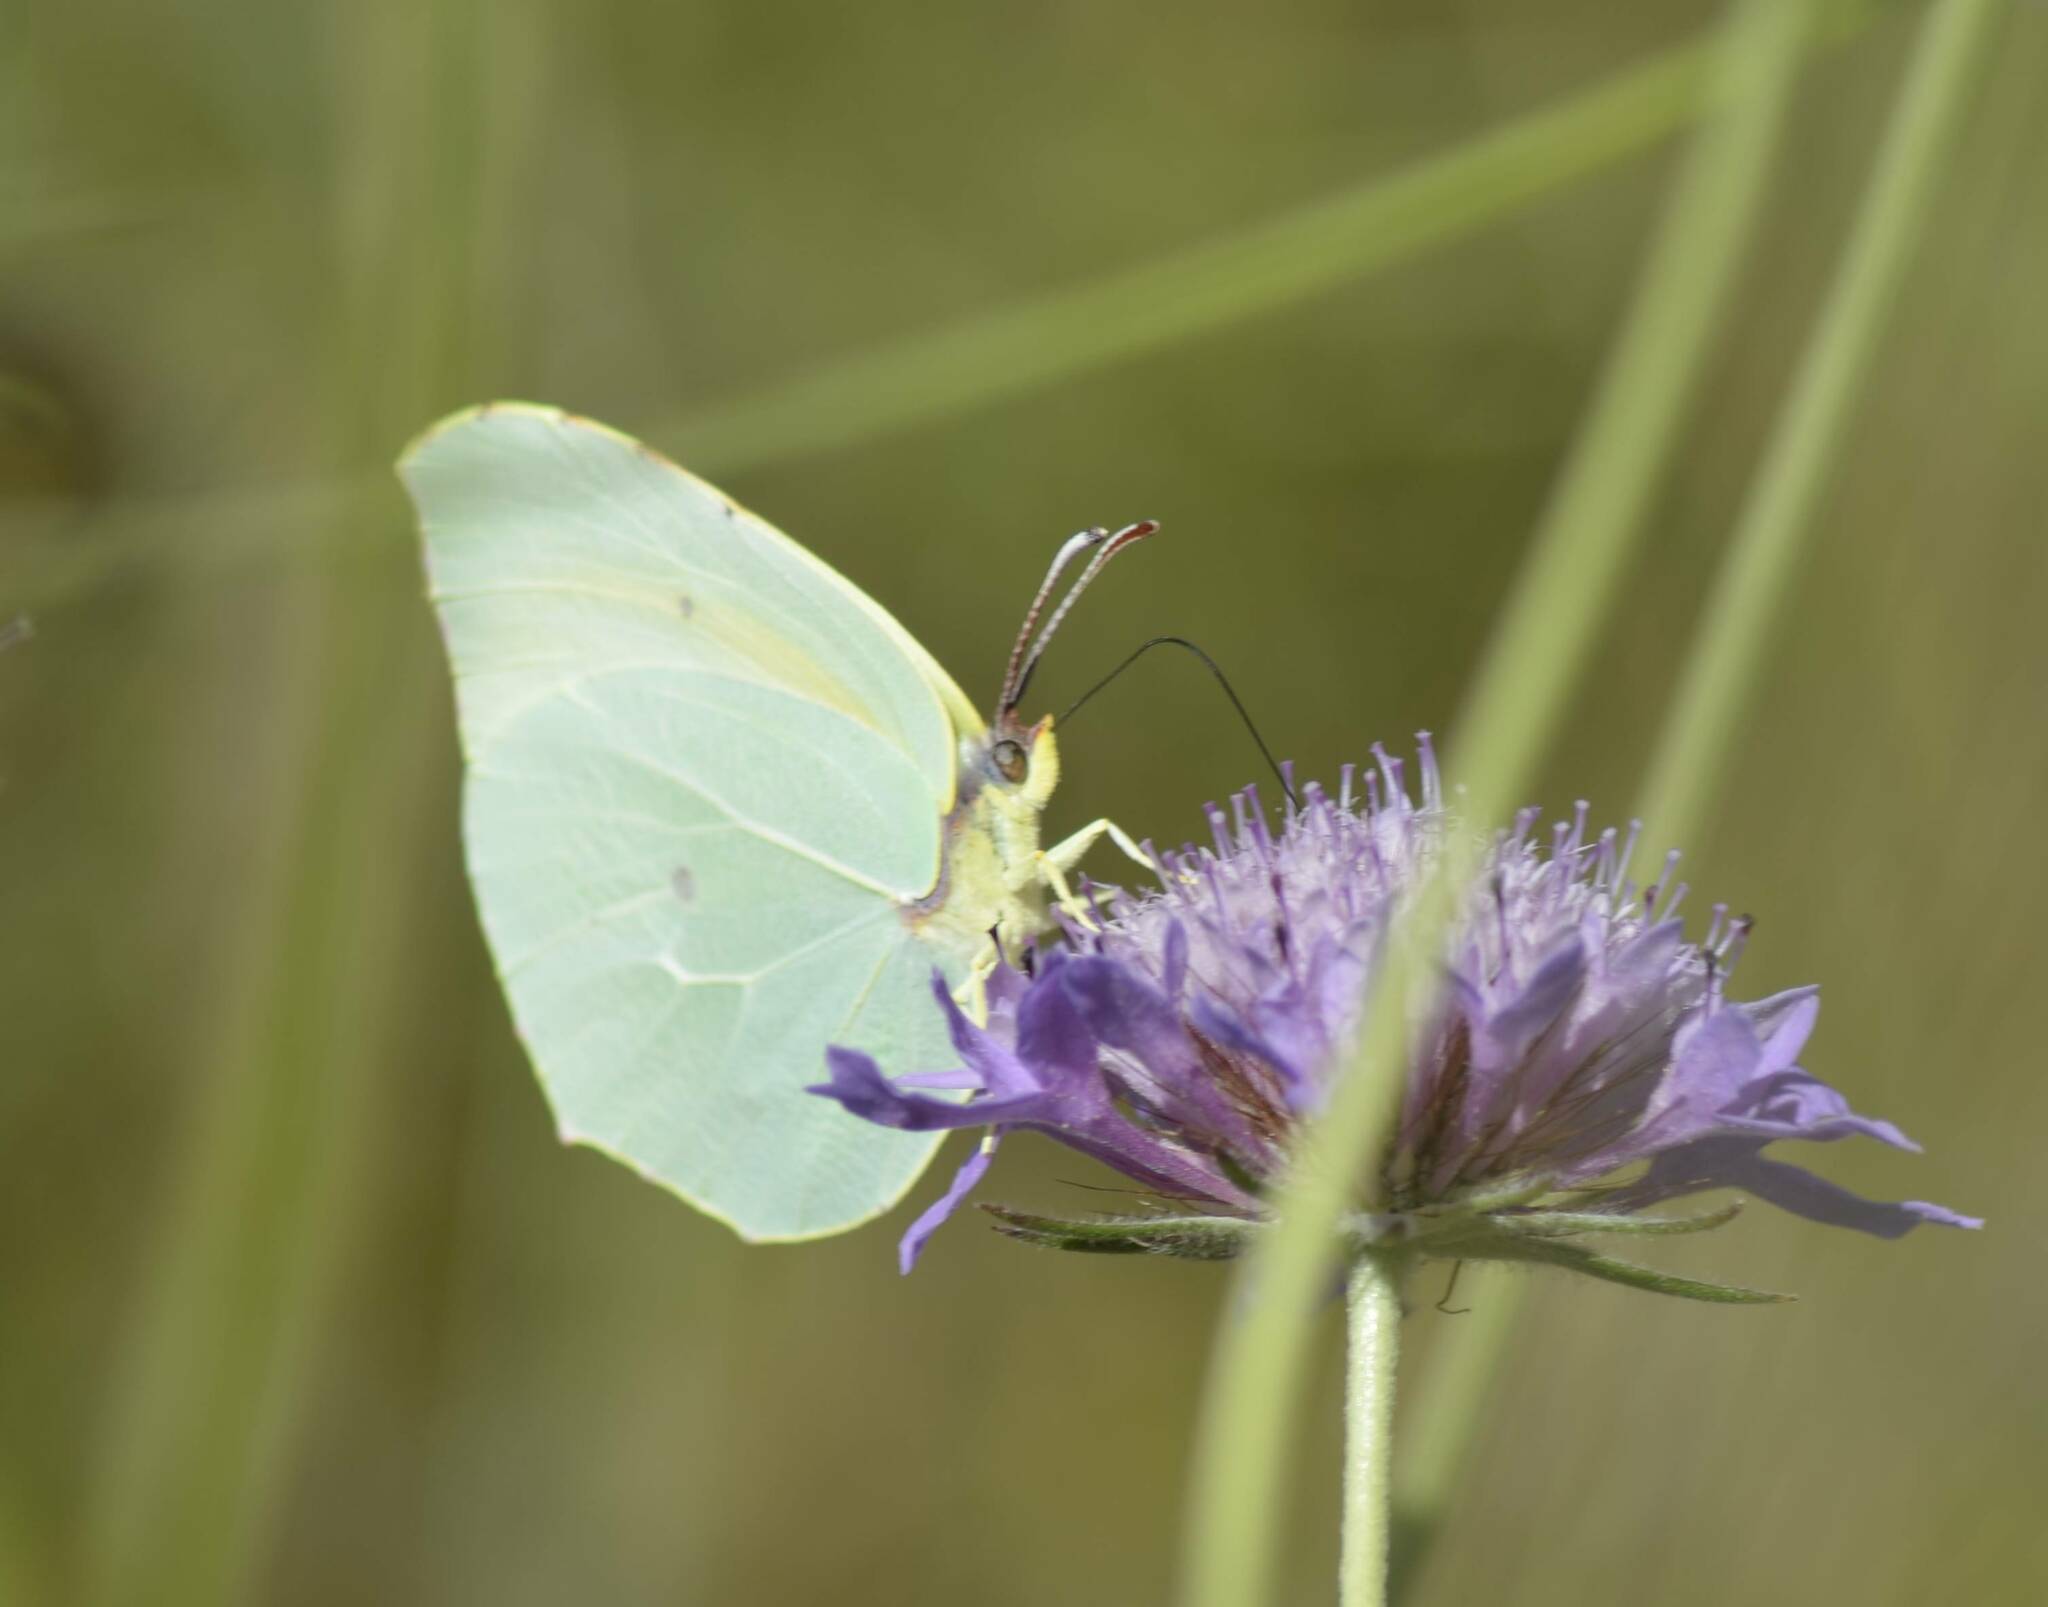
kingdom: Animalia
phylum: Arthropoda
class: Insecta
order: Lepidoptera
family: Pieridae
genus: Gonepteryx
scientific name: Gonepteryx cleopatra
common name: Cleopatra
